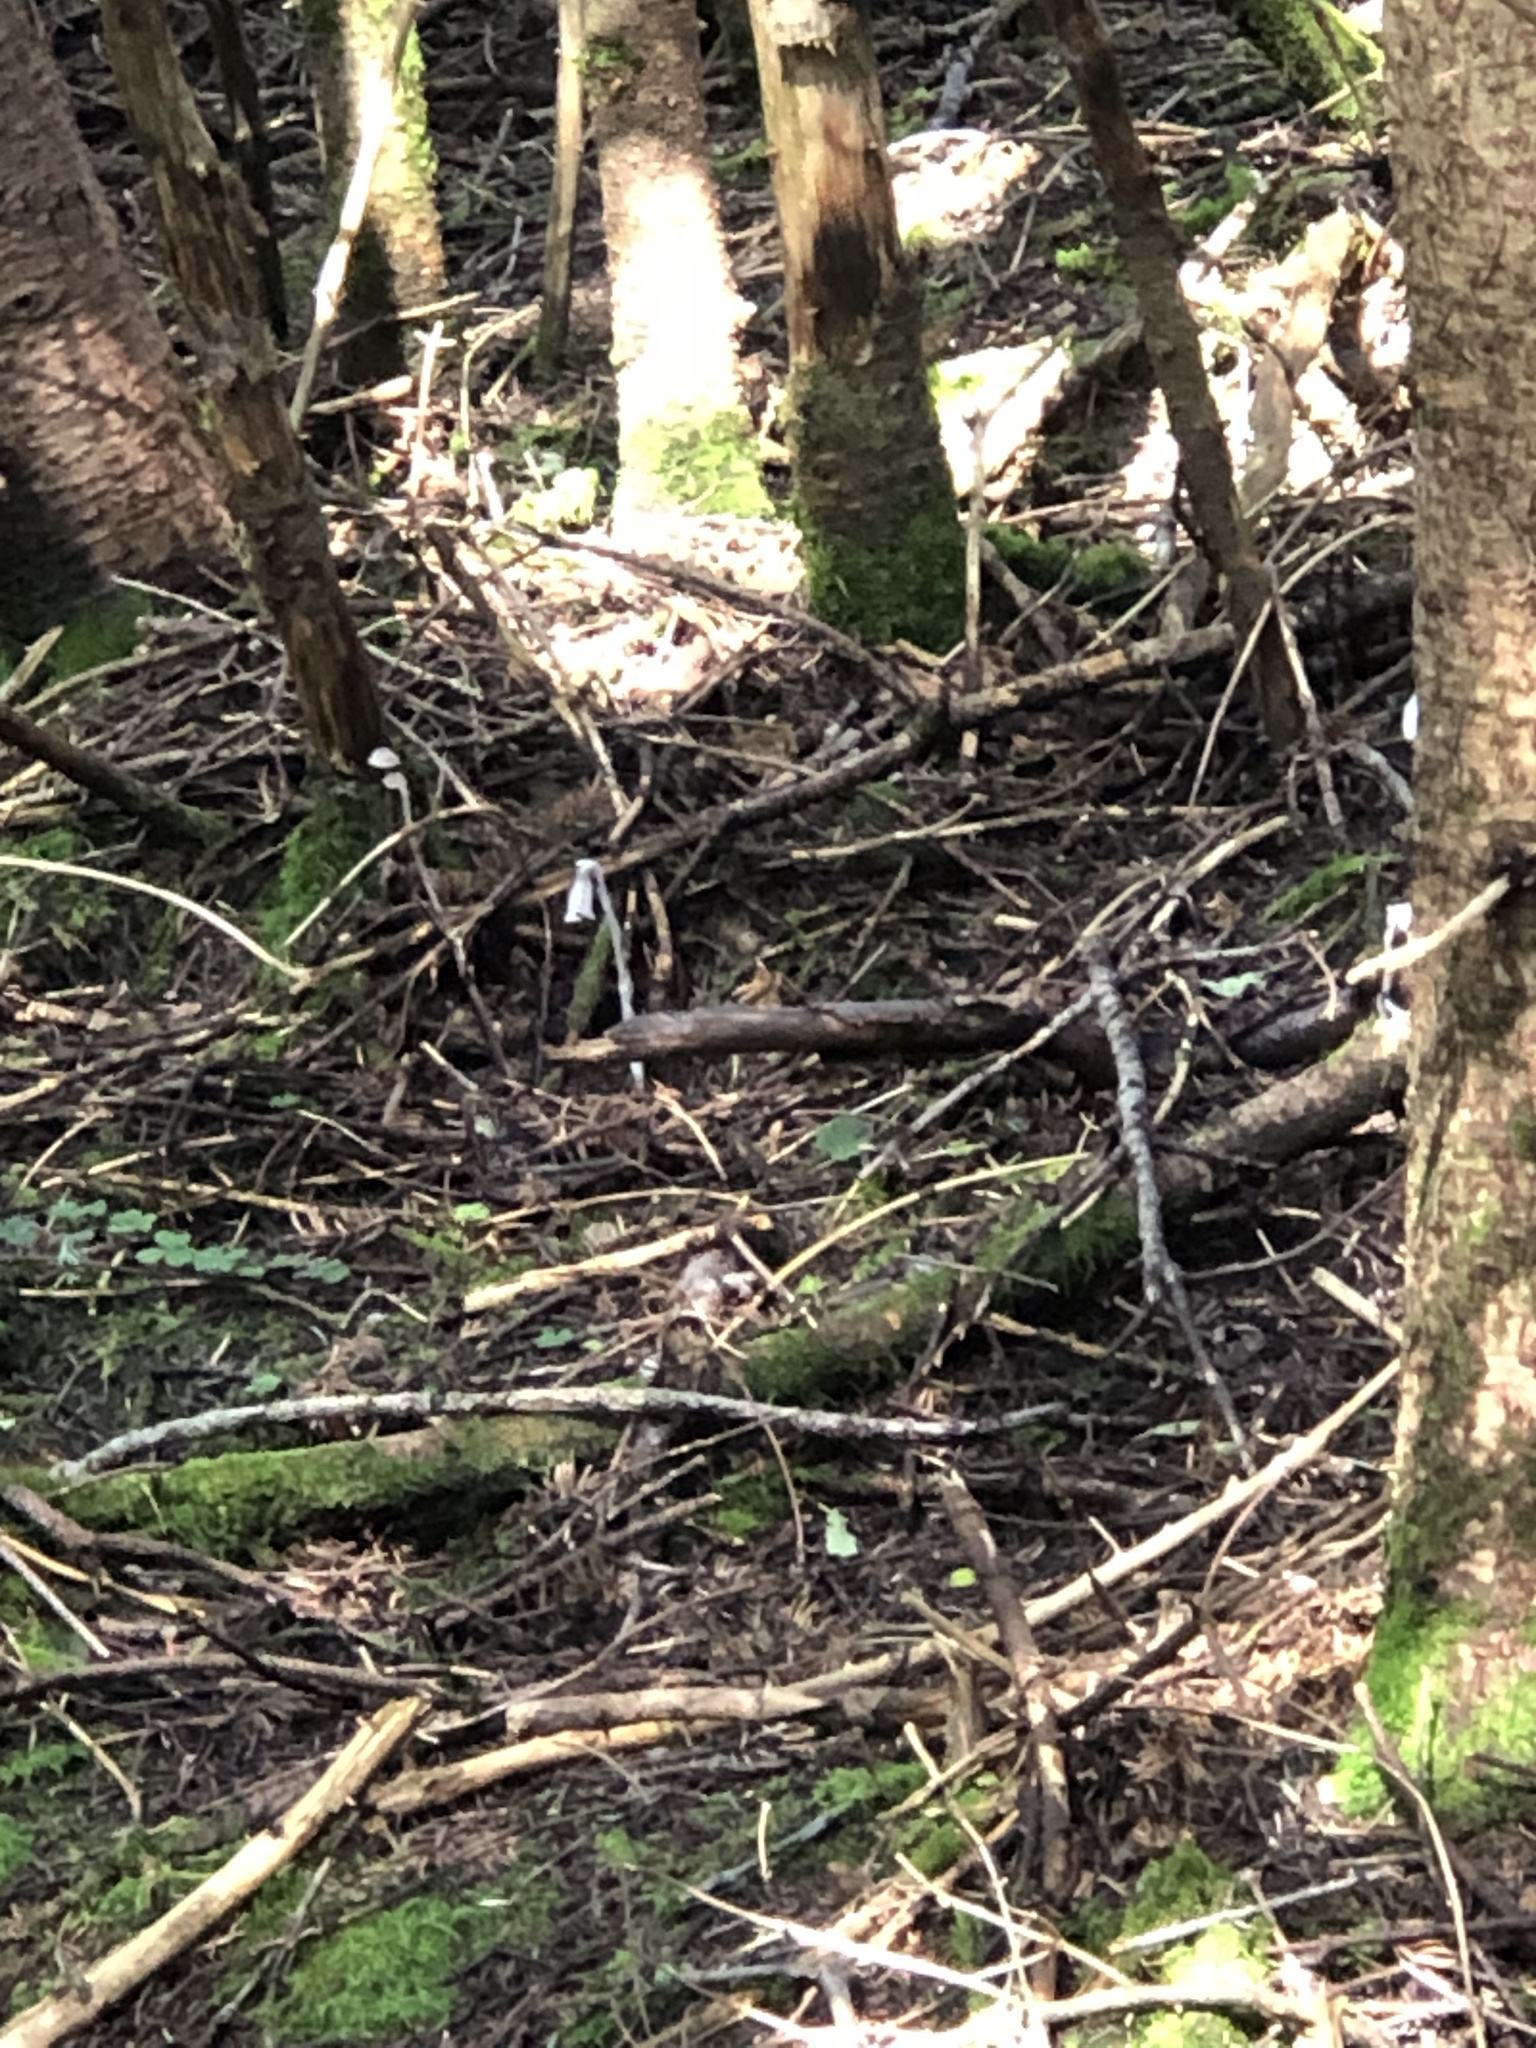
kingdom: Plantae
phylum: Tracheophyta
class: Magnoliopsida
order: Ericales
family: Ericaceae
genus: Monotropa
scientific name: Monotropa uniflora
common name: Convulsion root
